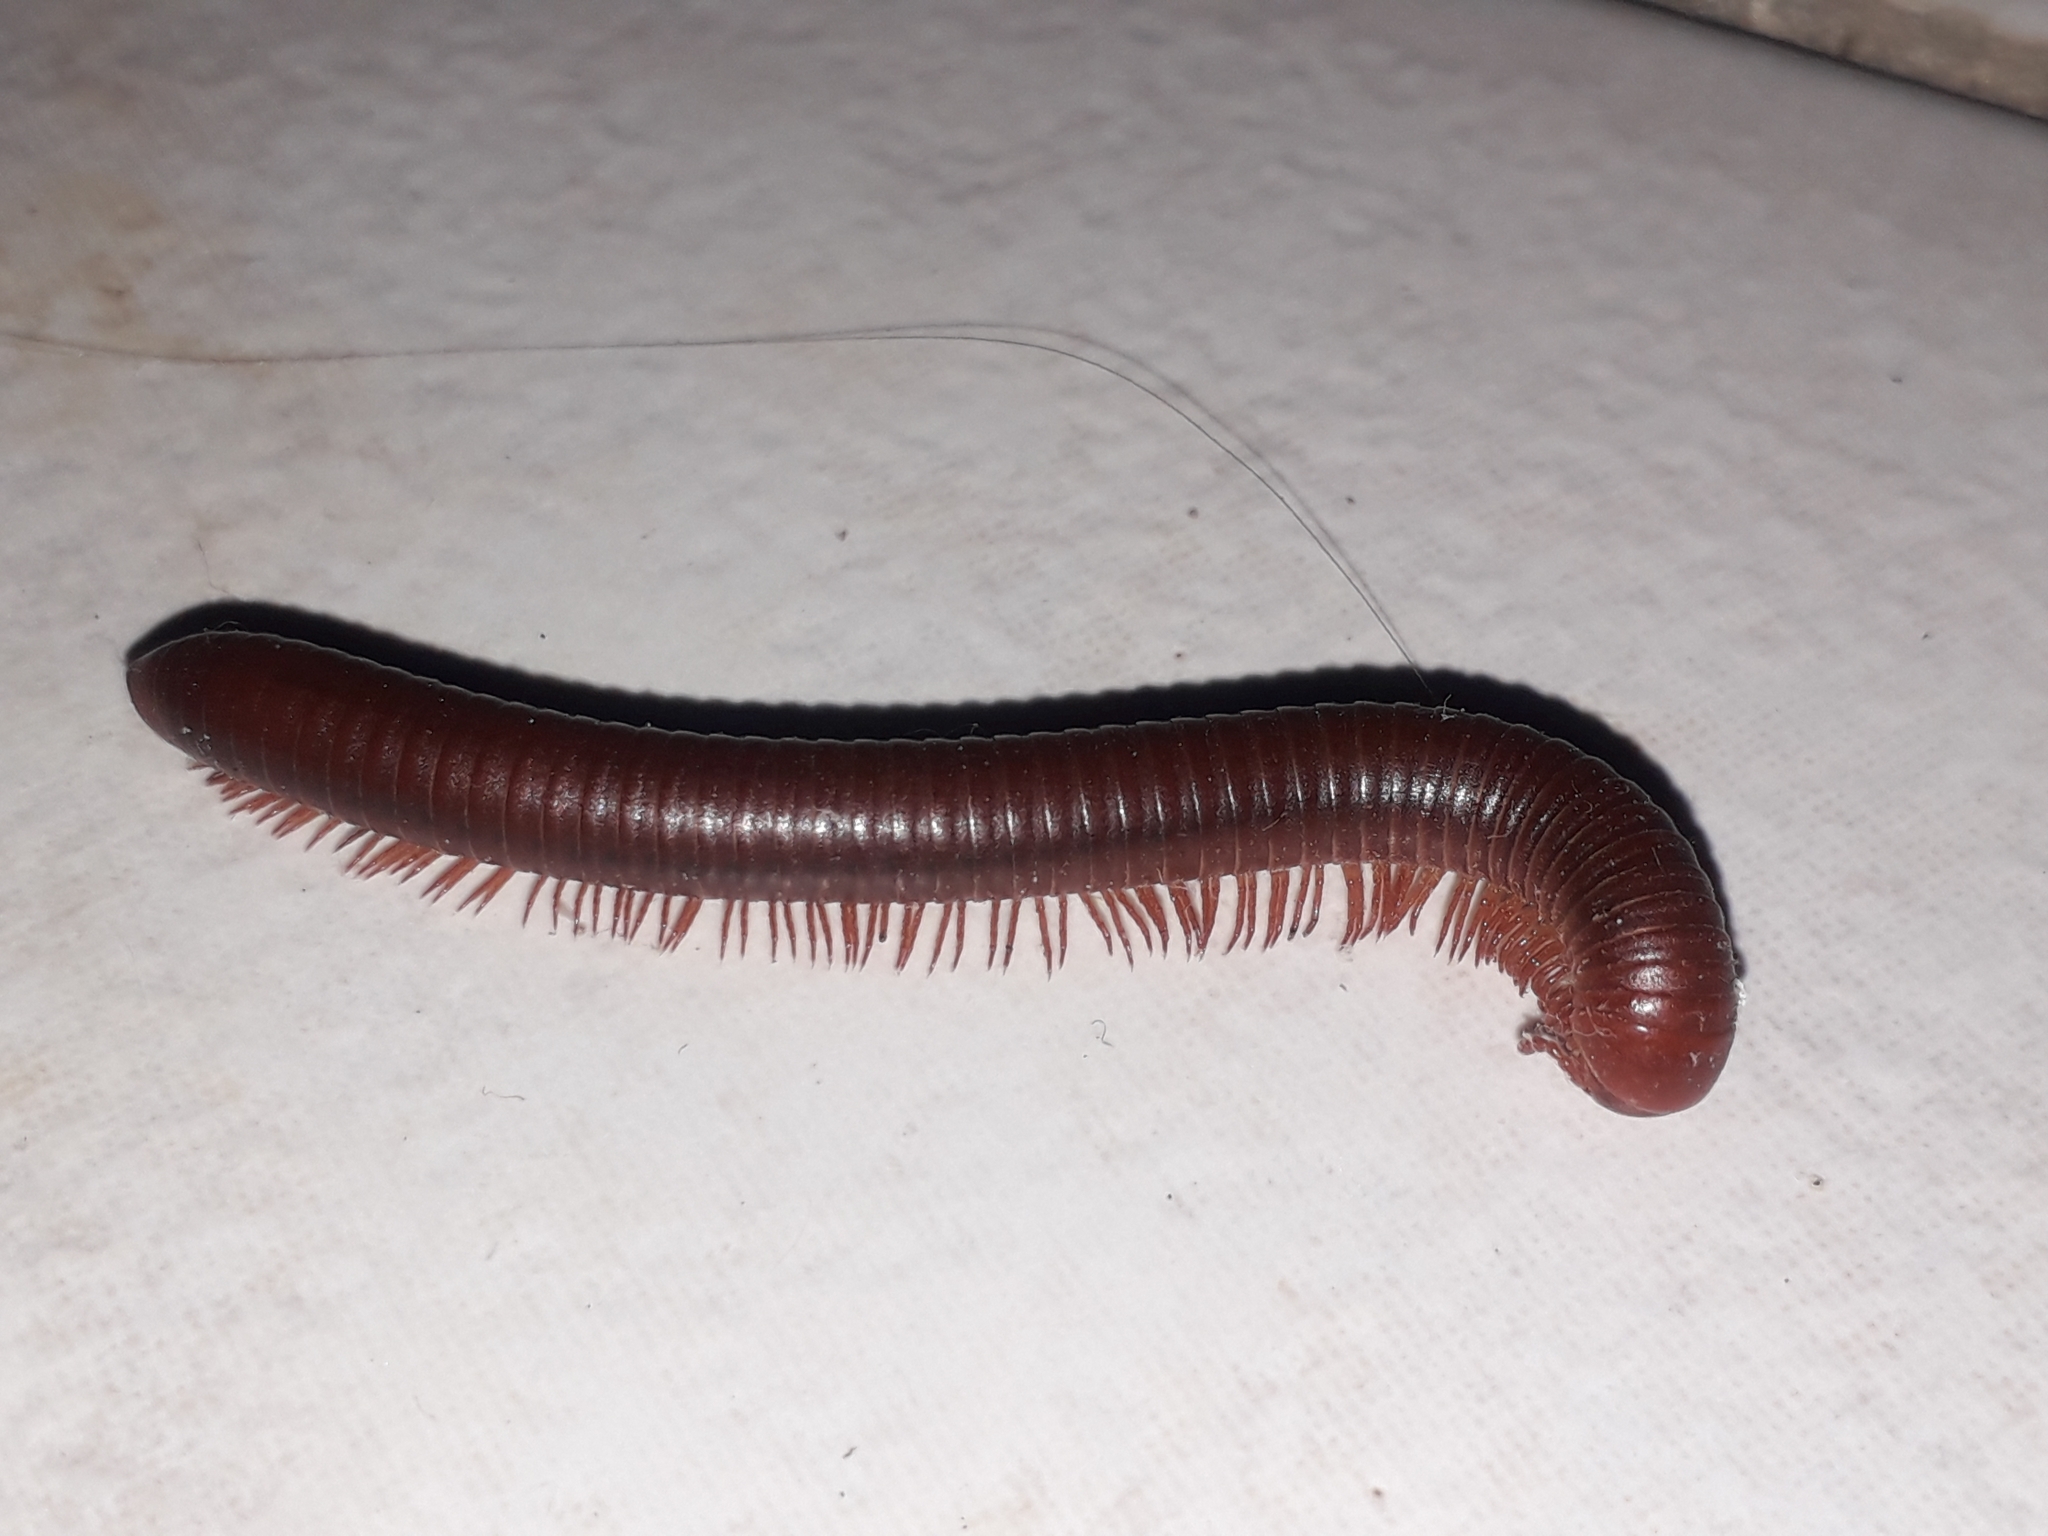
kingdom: Animalia
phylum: Arthropoda
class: Diplopoda
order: Spirobolida
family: Pachybolidae
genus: Trigoniulus
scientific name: Trigoniulus corallinus
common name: Millipede
